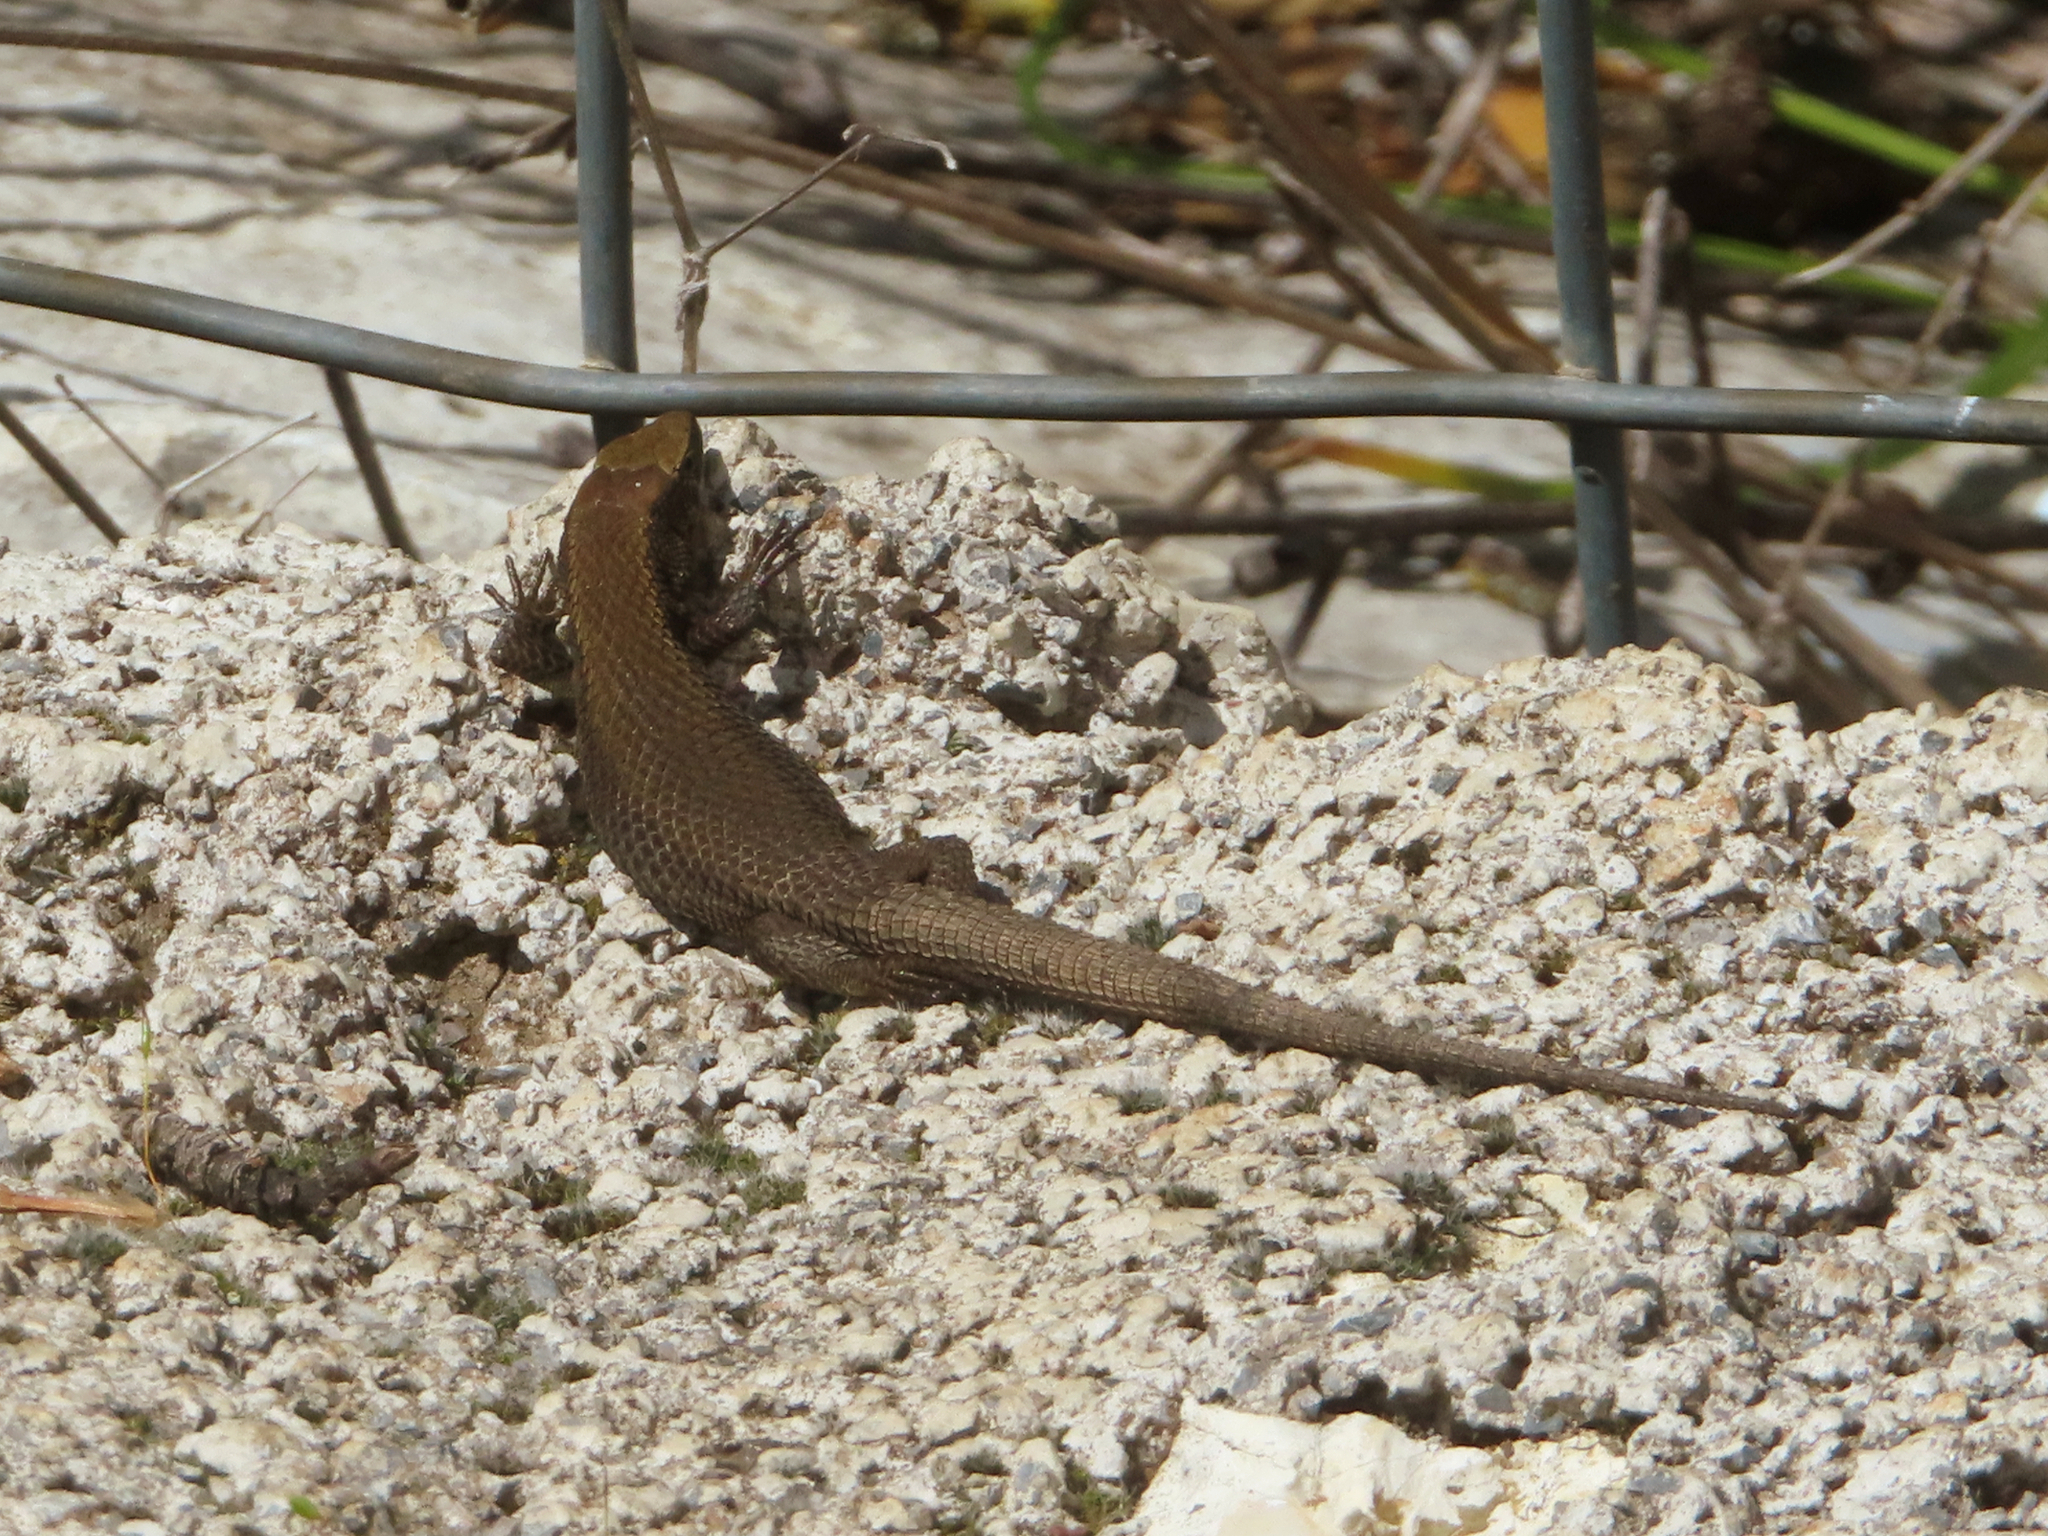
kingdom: Animalia
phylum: Chordata
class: Squamata
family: Lacertidae
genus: Algyroides
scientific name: Algyroides moreoticus
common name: Greek algyroides
